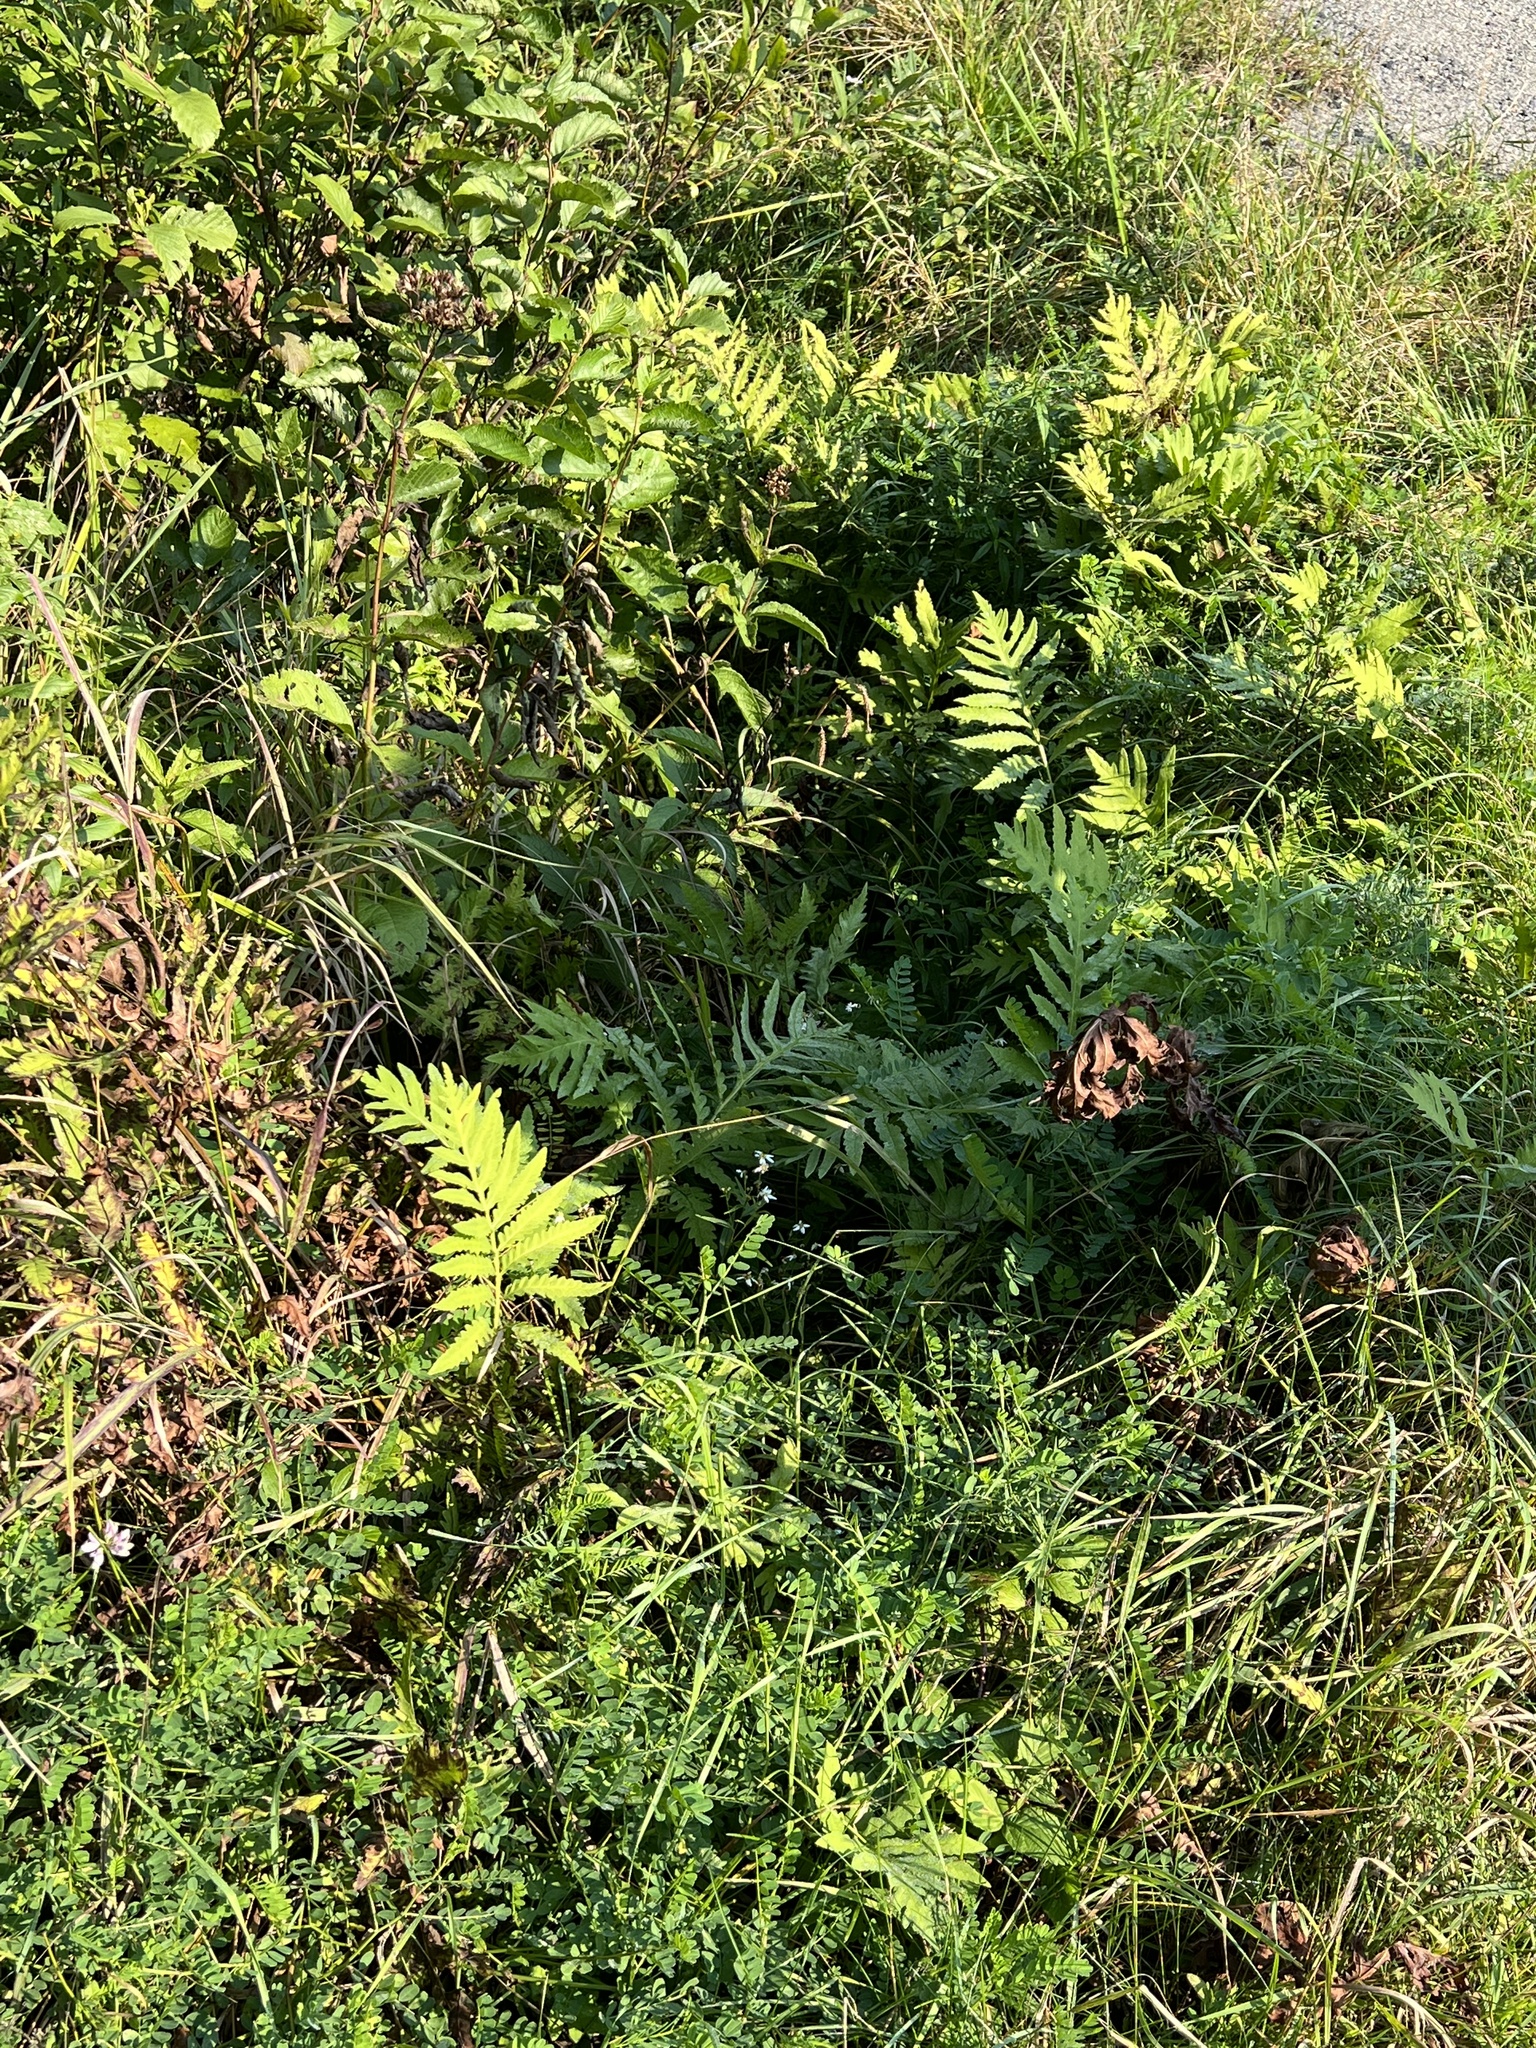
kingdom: Plantae
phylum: Tracheophyta
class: Polypodiopsida
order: Polypodiales
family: Onocleaceae
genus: Onoclea
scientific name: Onoclea sensibilis
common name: Sensitive fern
